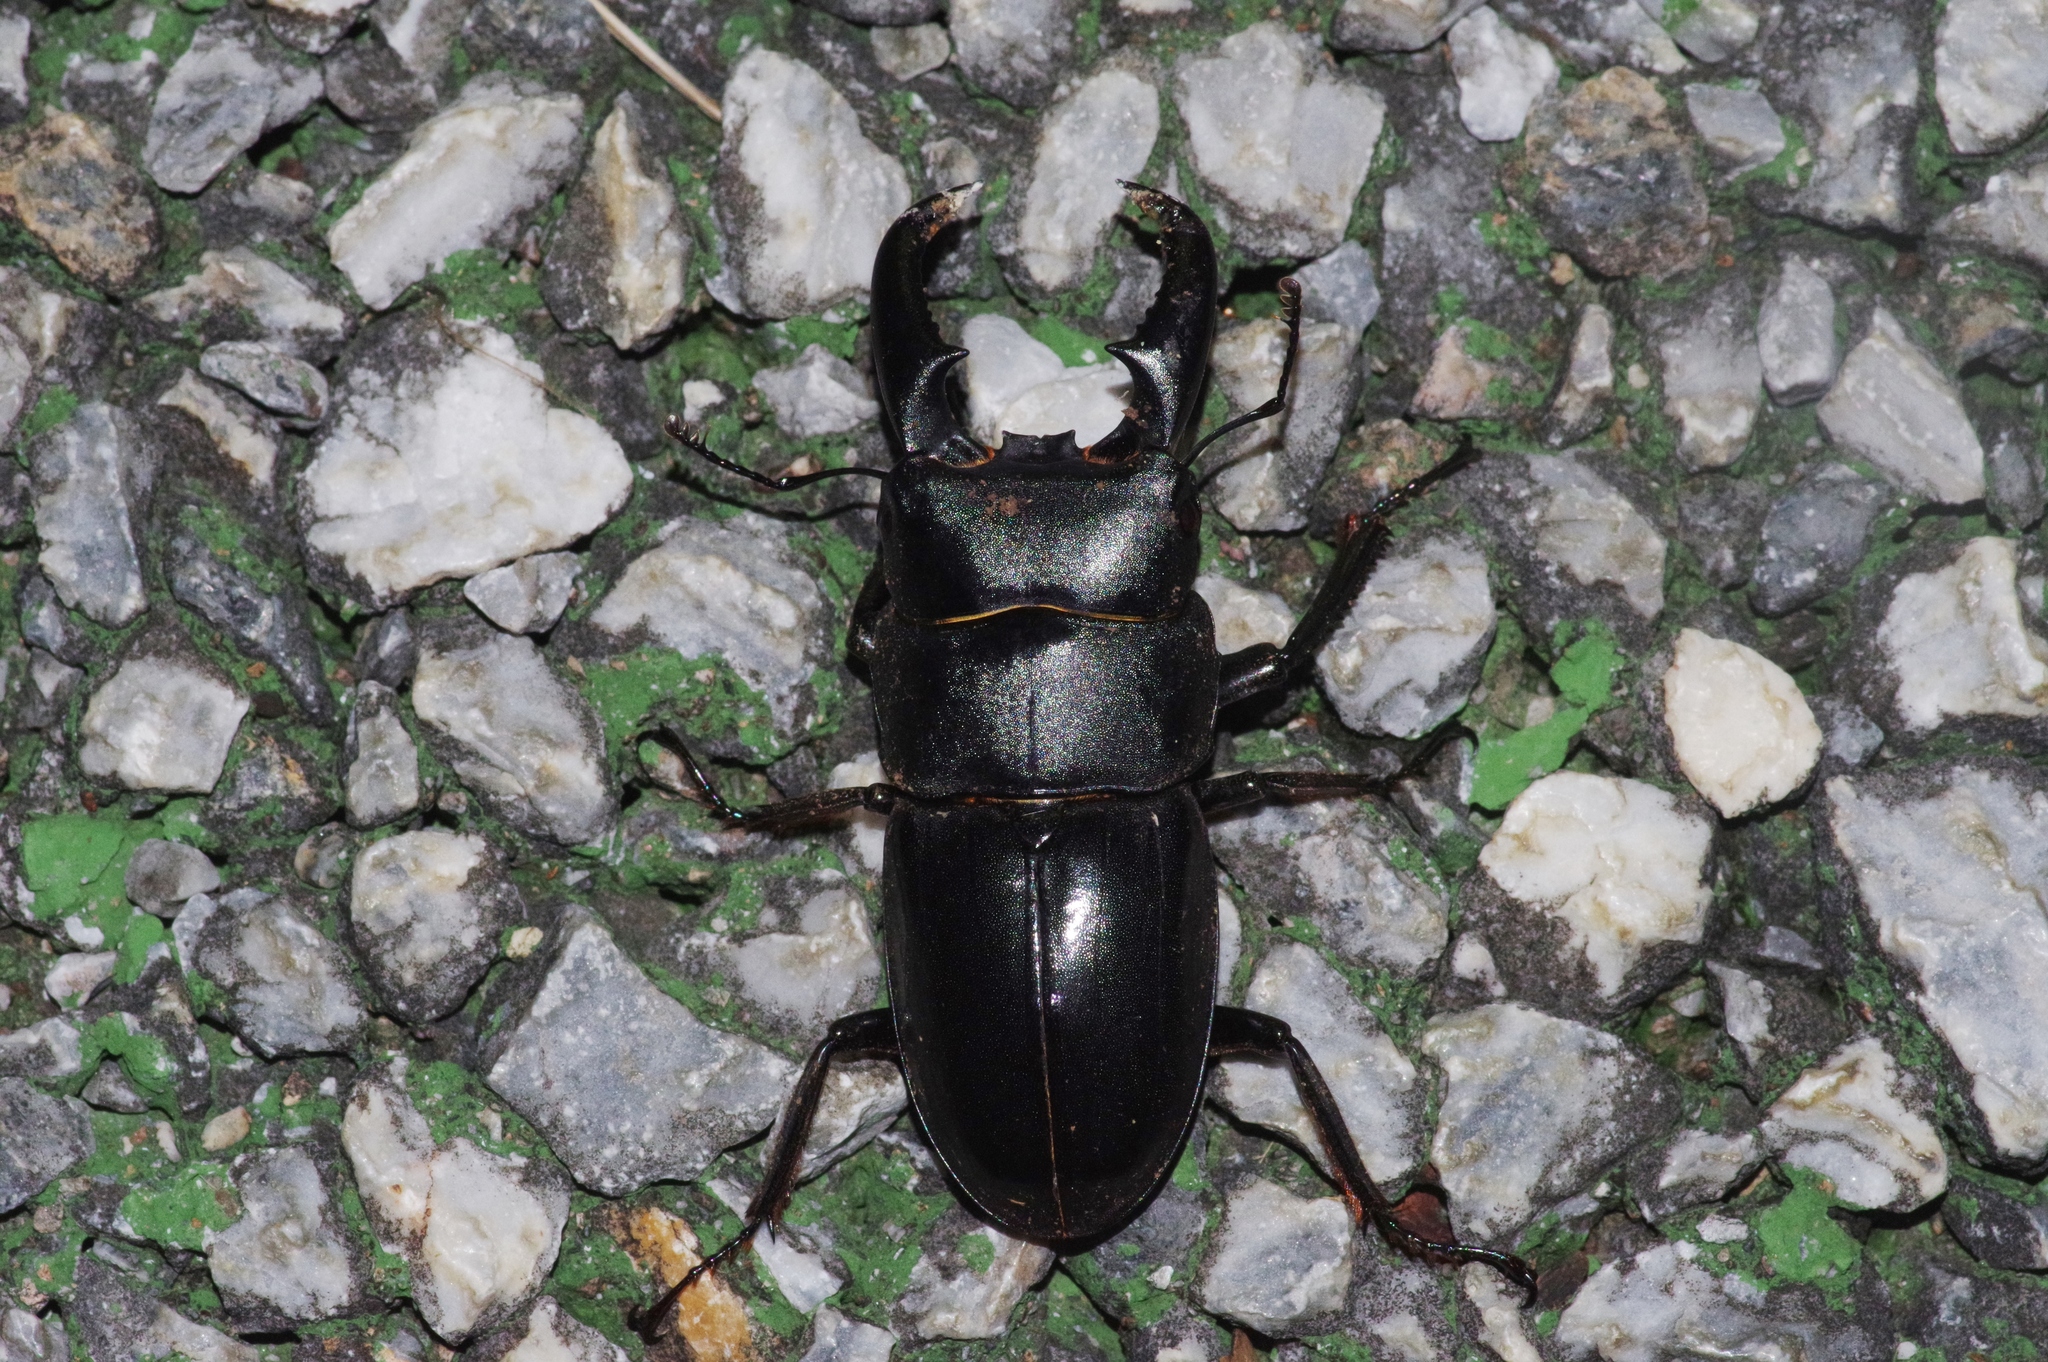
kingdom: Animalia
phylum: Arthropoda
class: Insecta
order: Coleoptera
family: Lucanidae
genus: Serrognathus
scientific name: Serrognathus titanus
